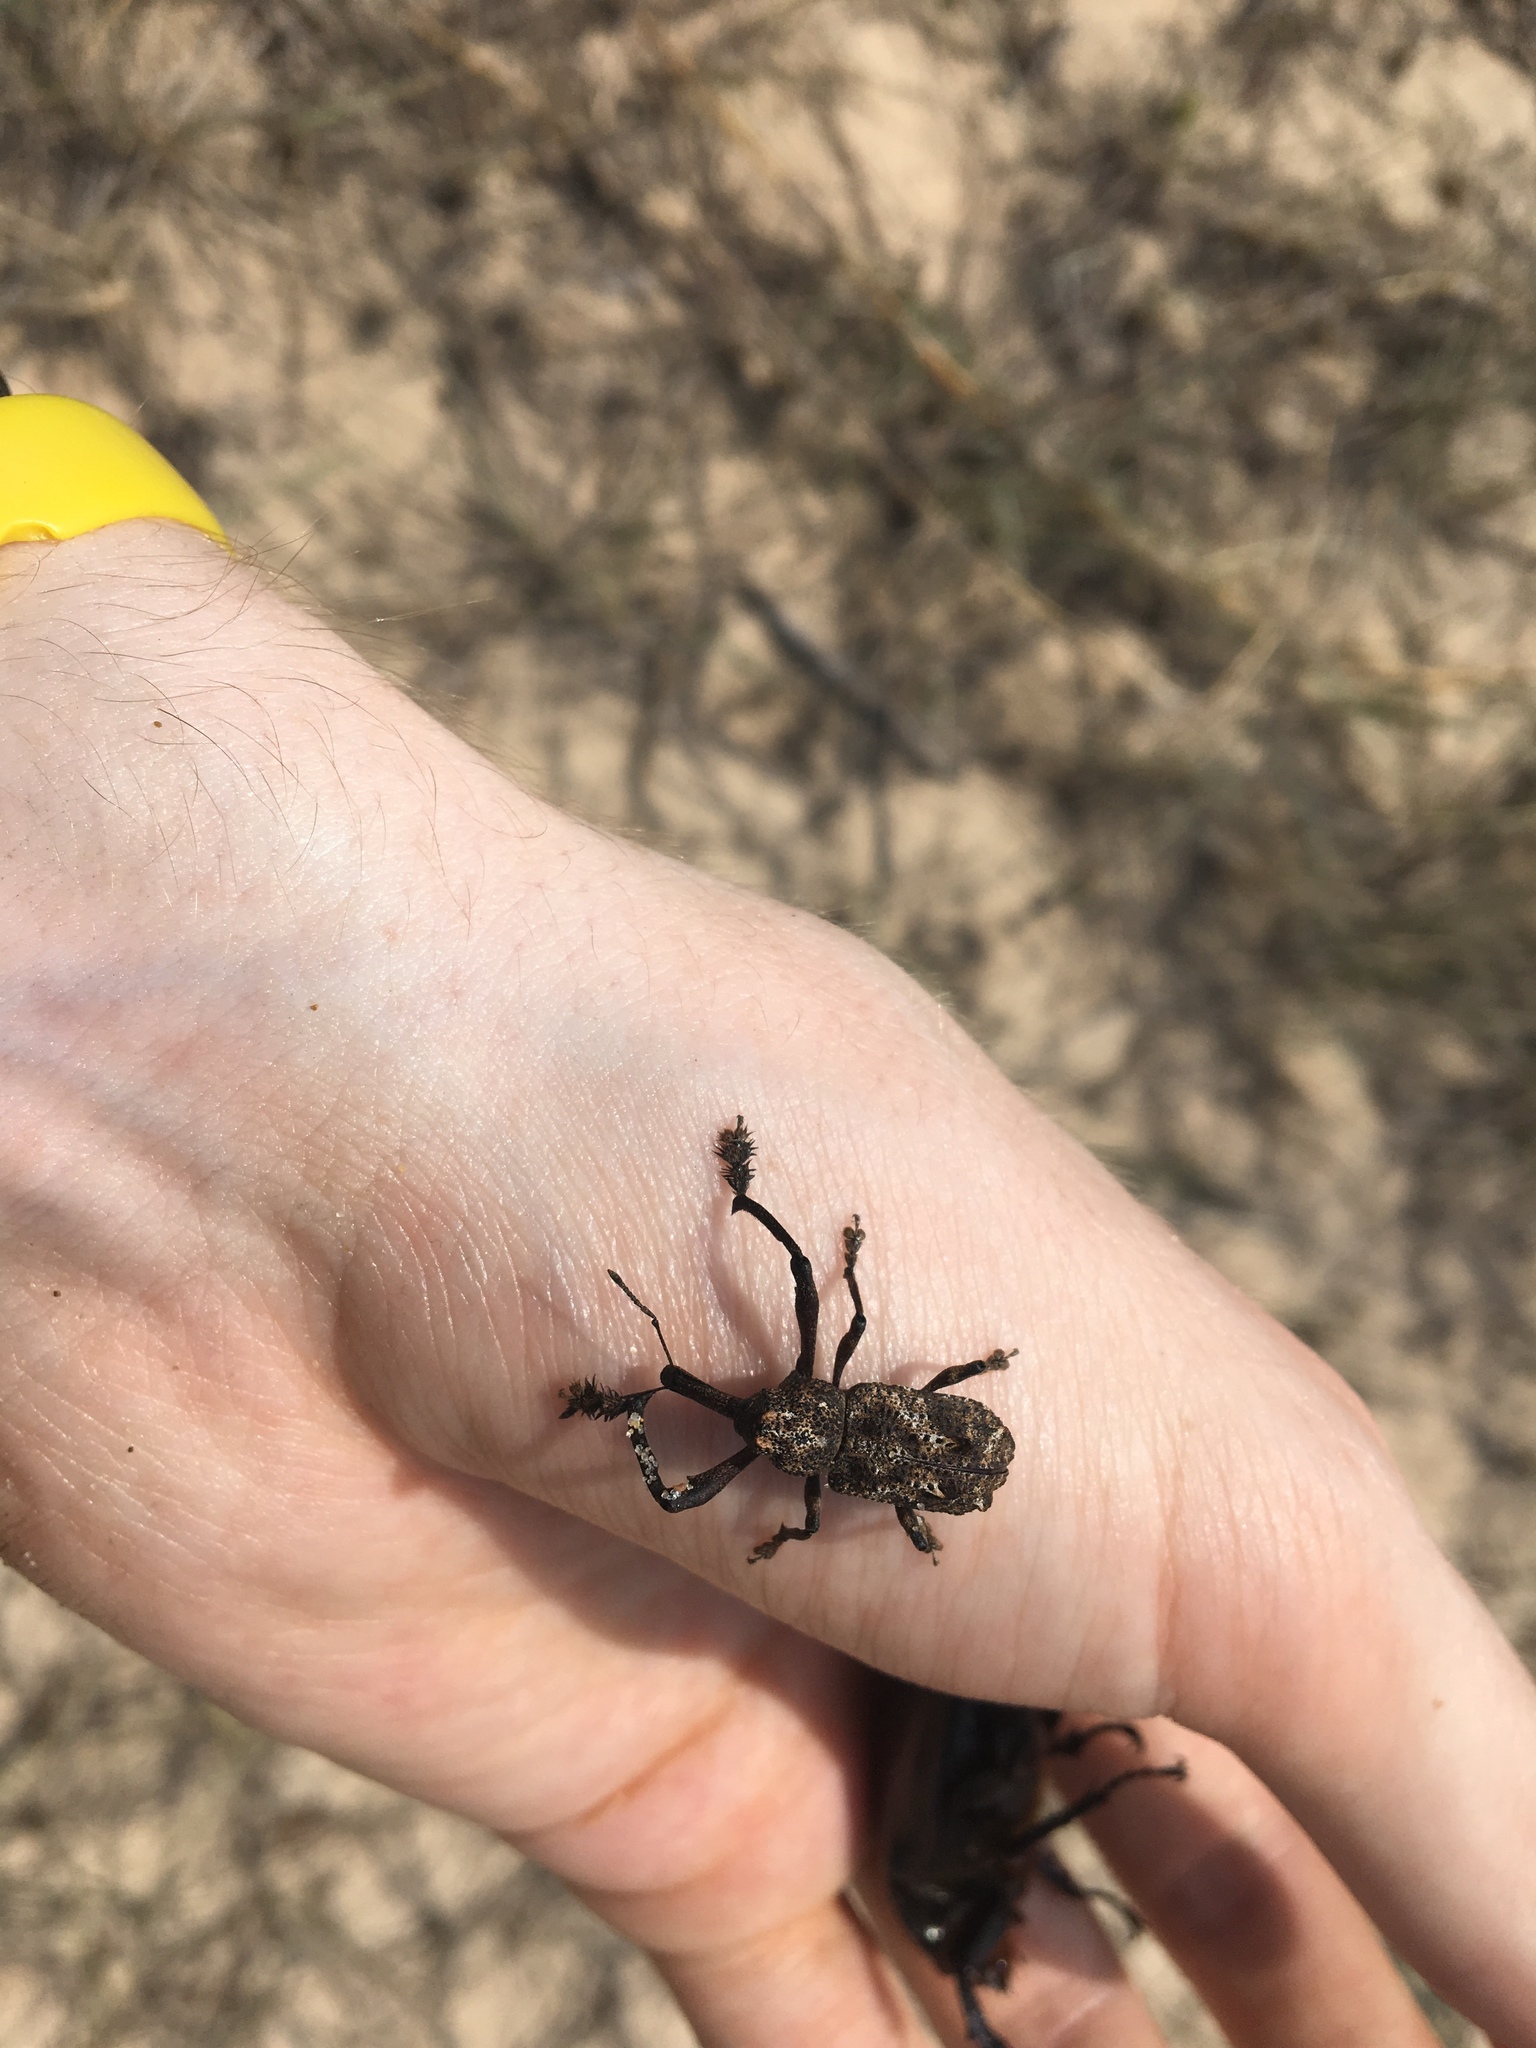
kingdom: Animalia
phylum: Arthropoda
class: Insecta
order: Coleoptera
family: Curculionidae
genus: Orthorhinus
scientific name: Orthorhinus cylindrirostris
